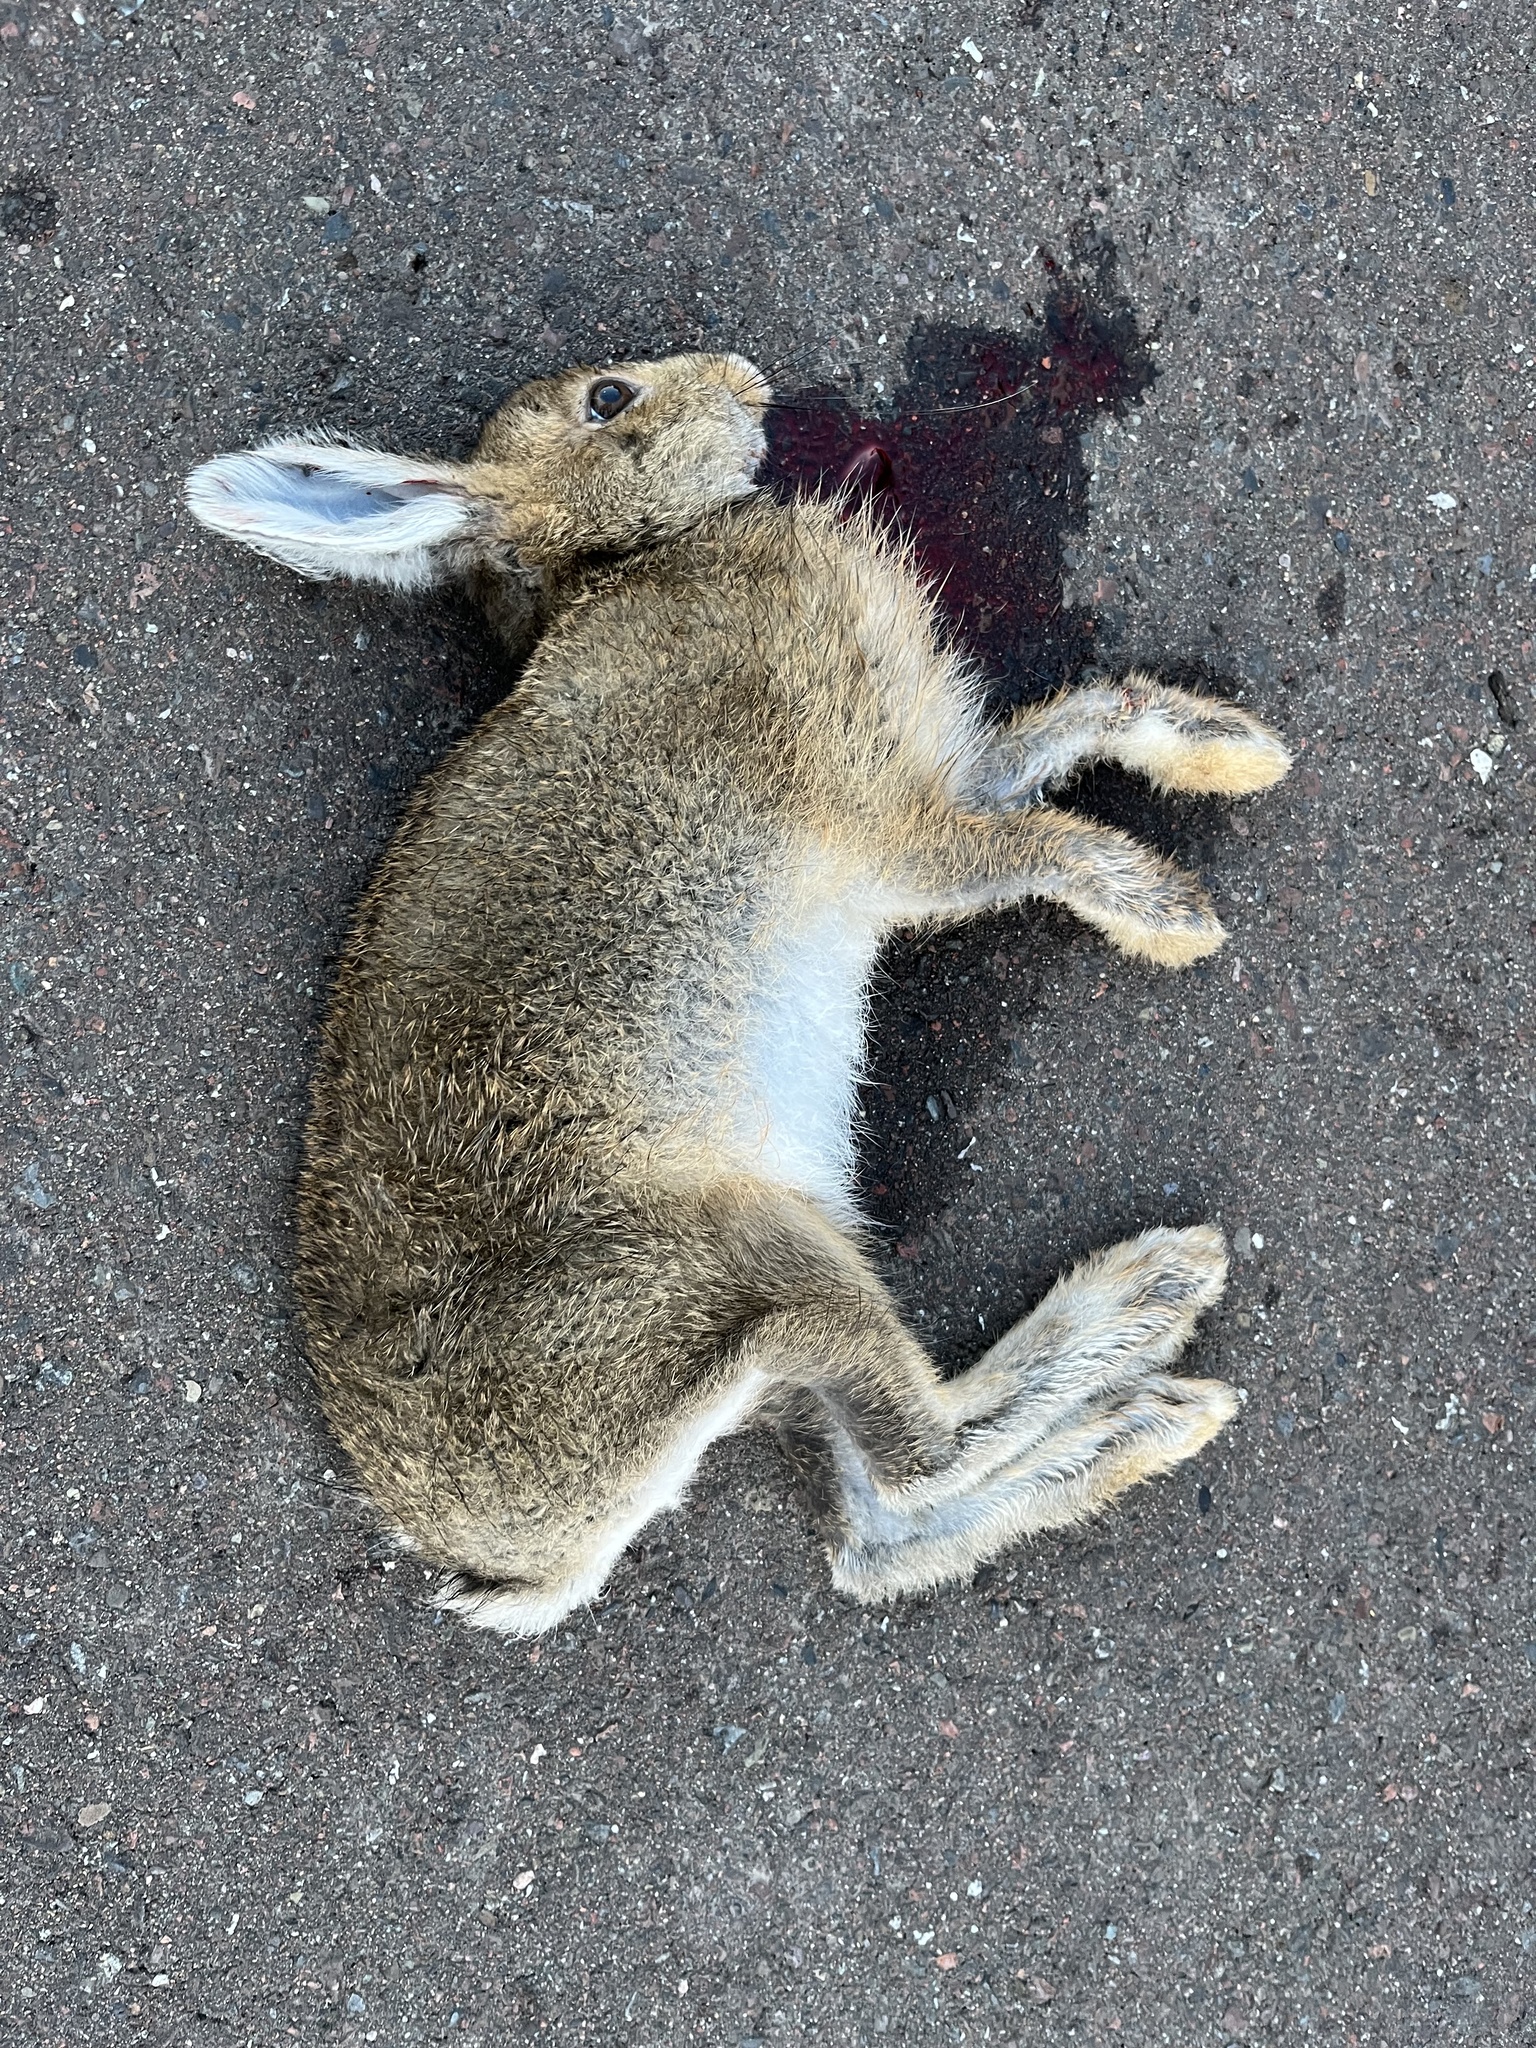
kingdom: Animalia
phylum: Chordata
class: Mammalia
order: Lagomorpha
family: Leporidae
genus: Lepus
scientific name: Lepus americanus
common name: Snowshoe hare
